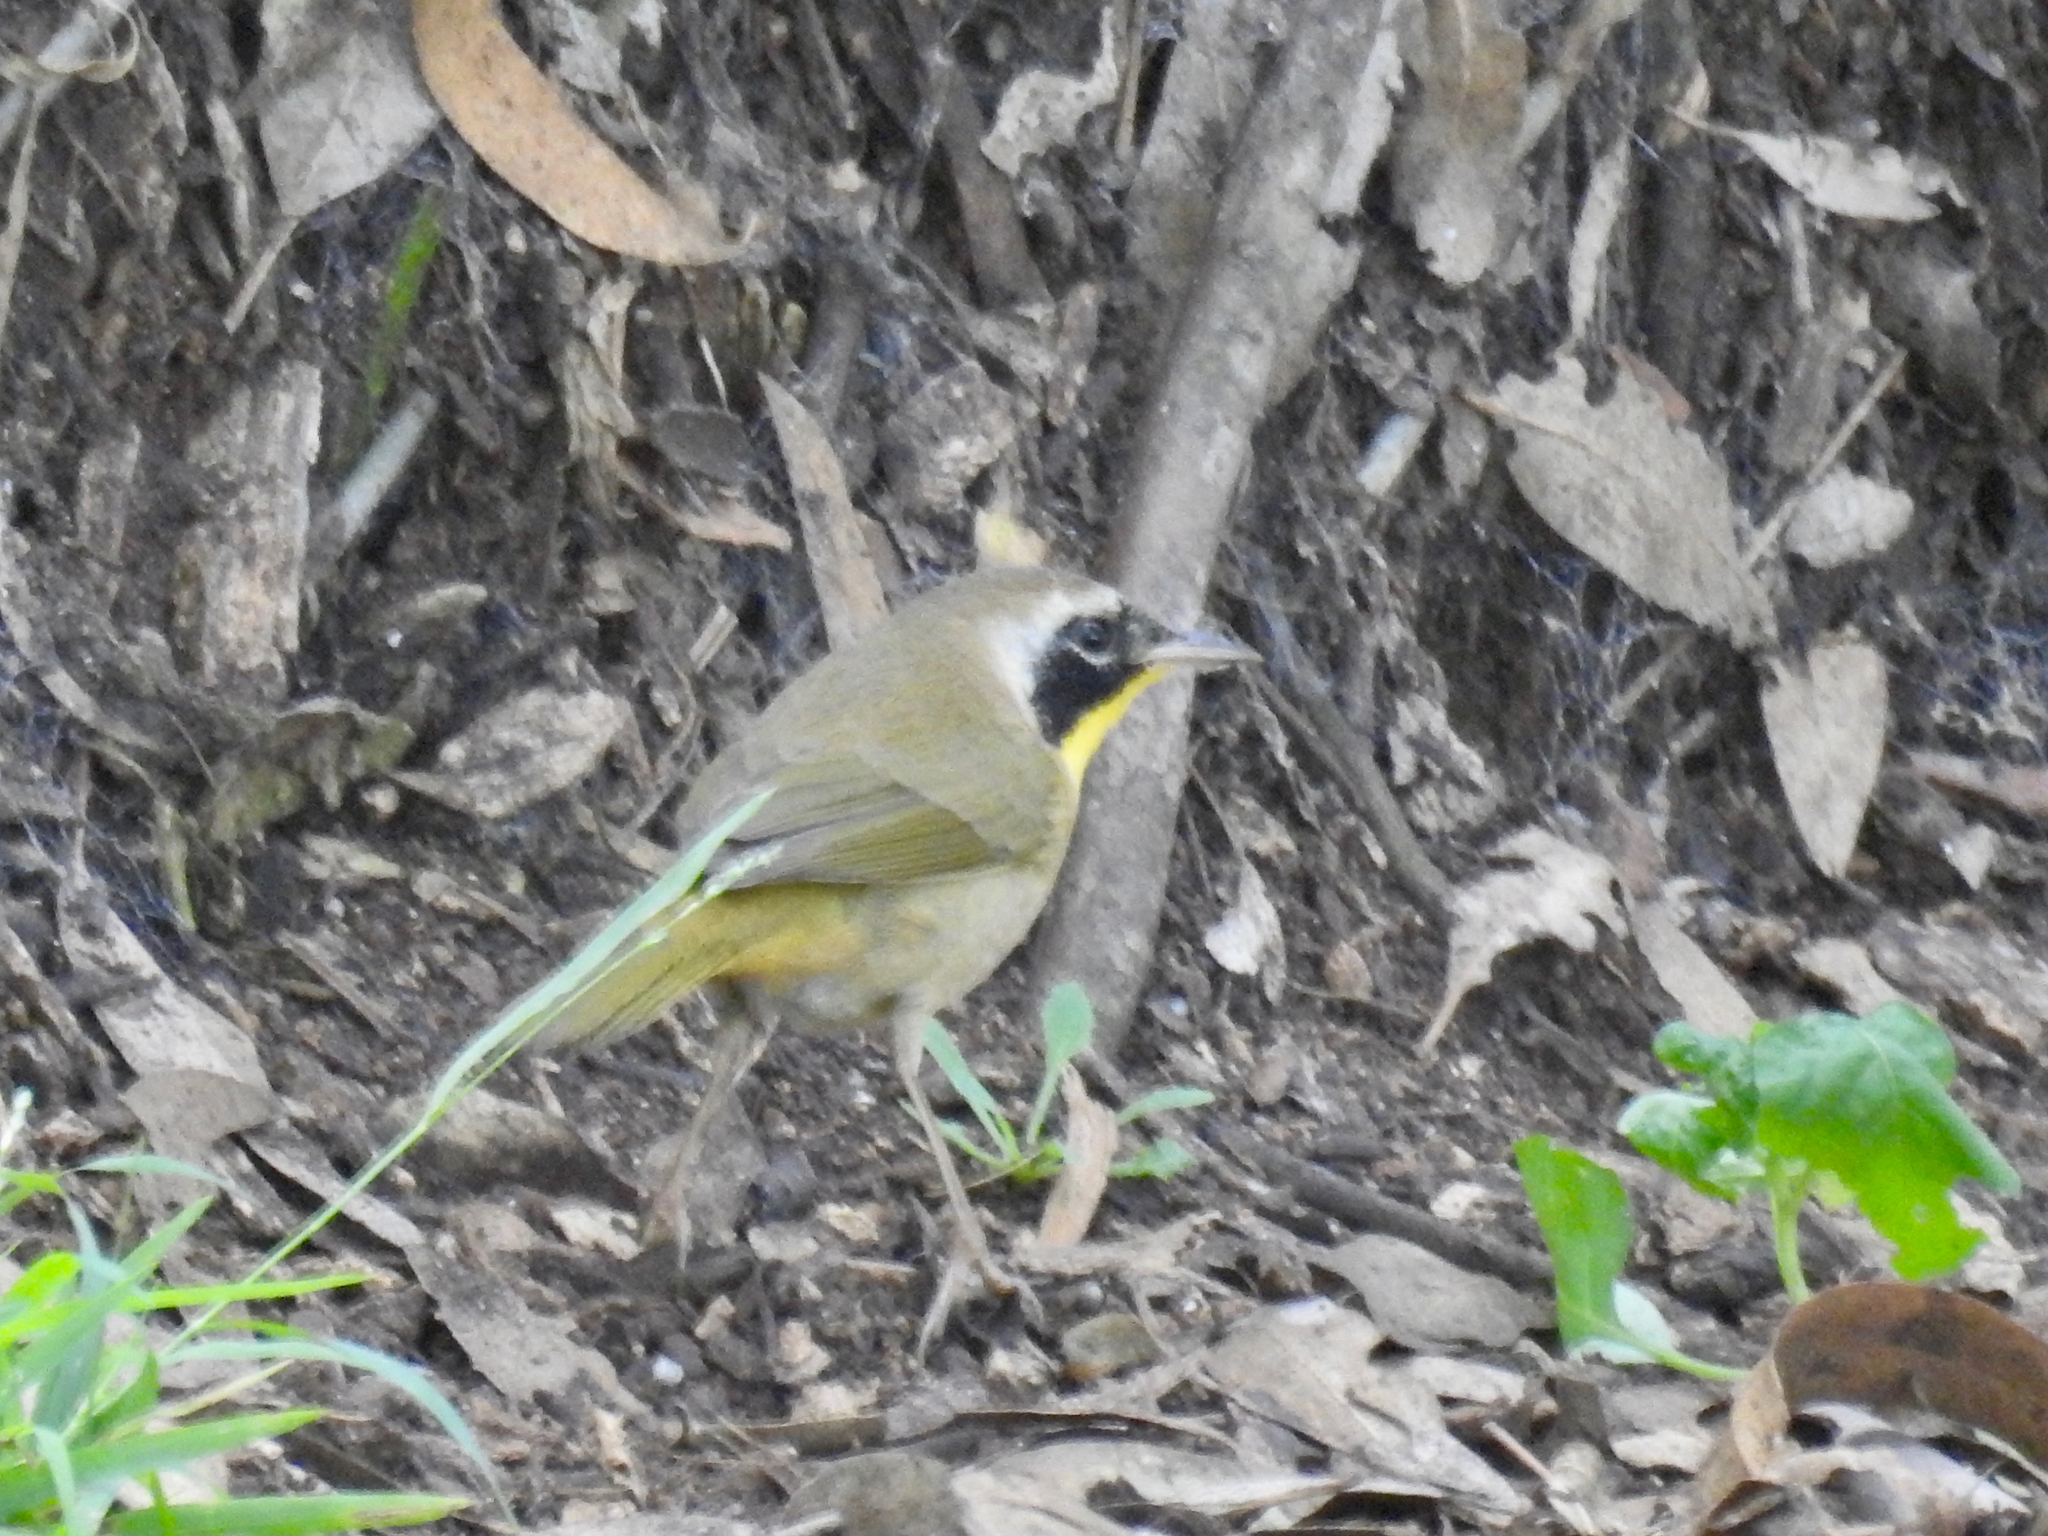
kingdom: Animalia
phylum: Chordata
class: Aves
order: Passeriformes
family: Parulidae
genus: Geothlypis
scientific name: Geothlypis trichas
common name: Common yellowthroat
